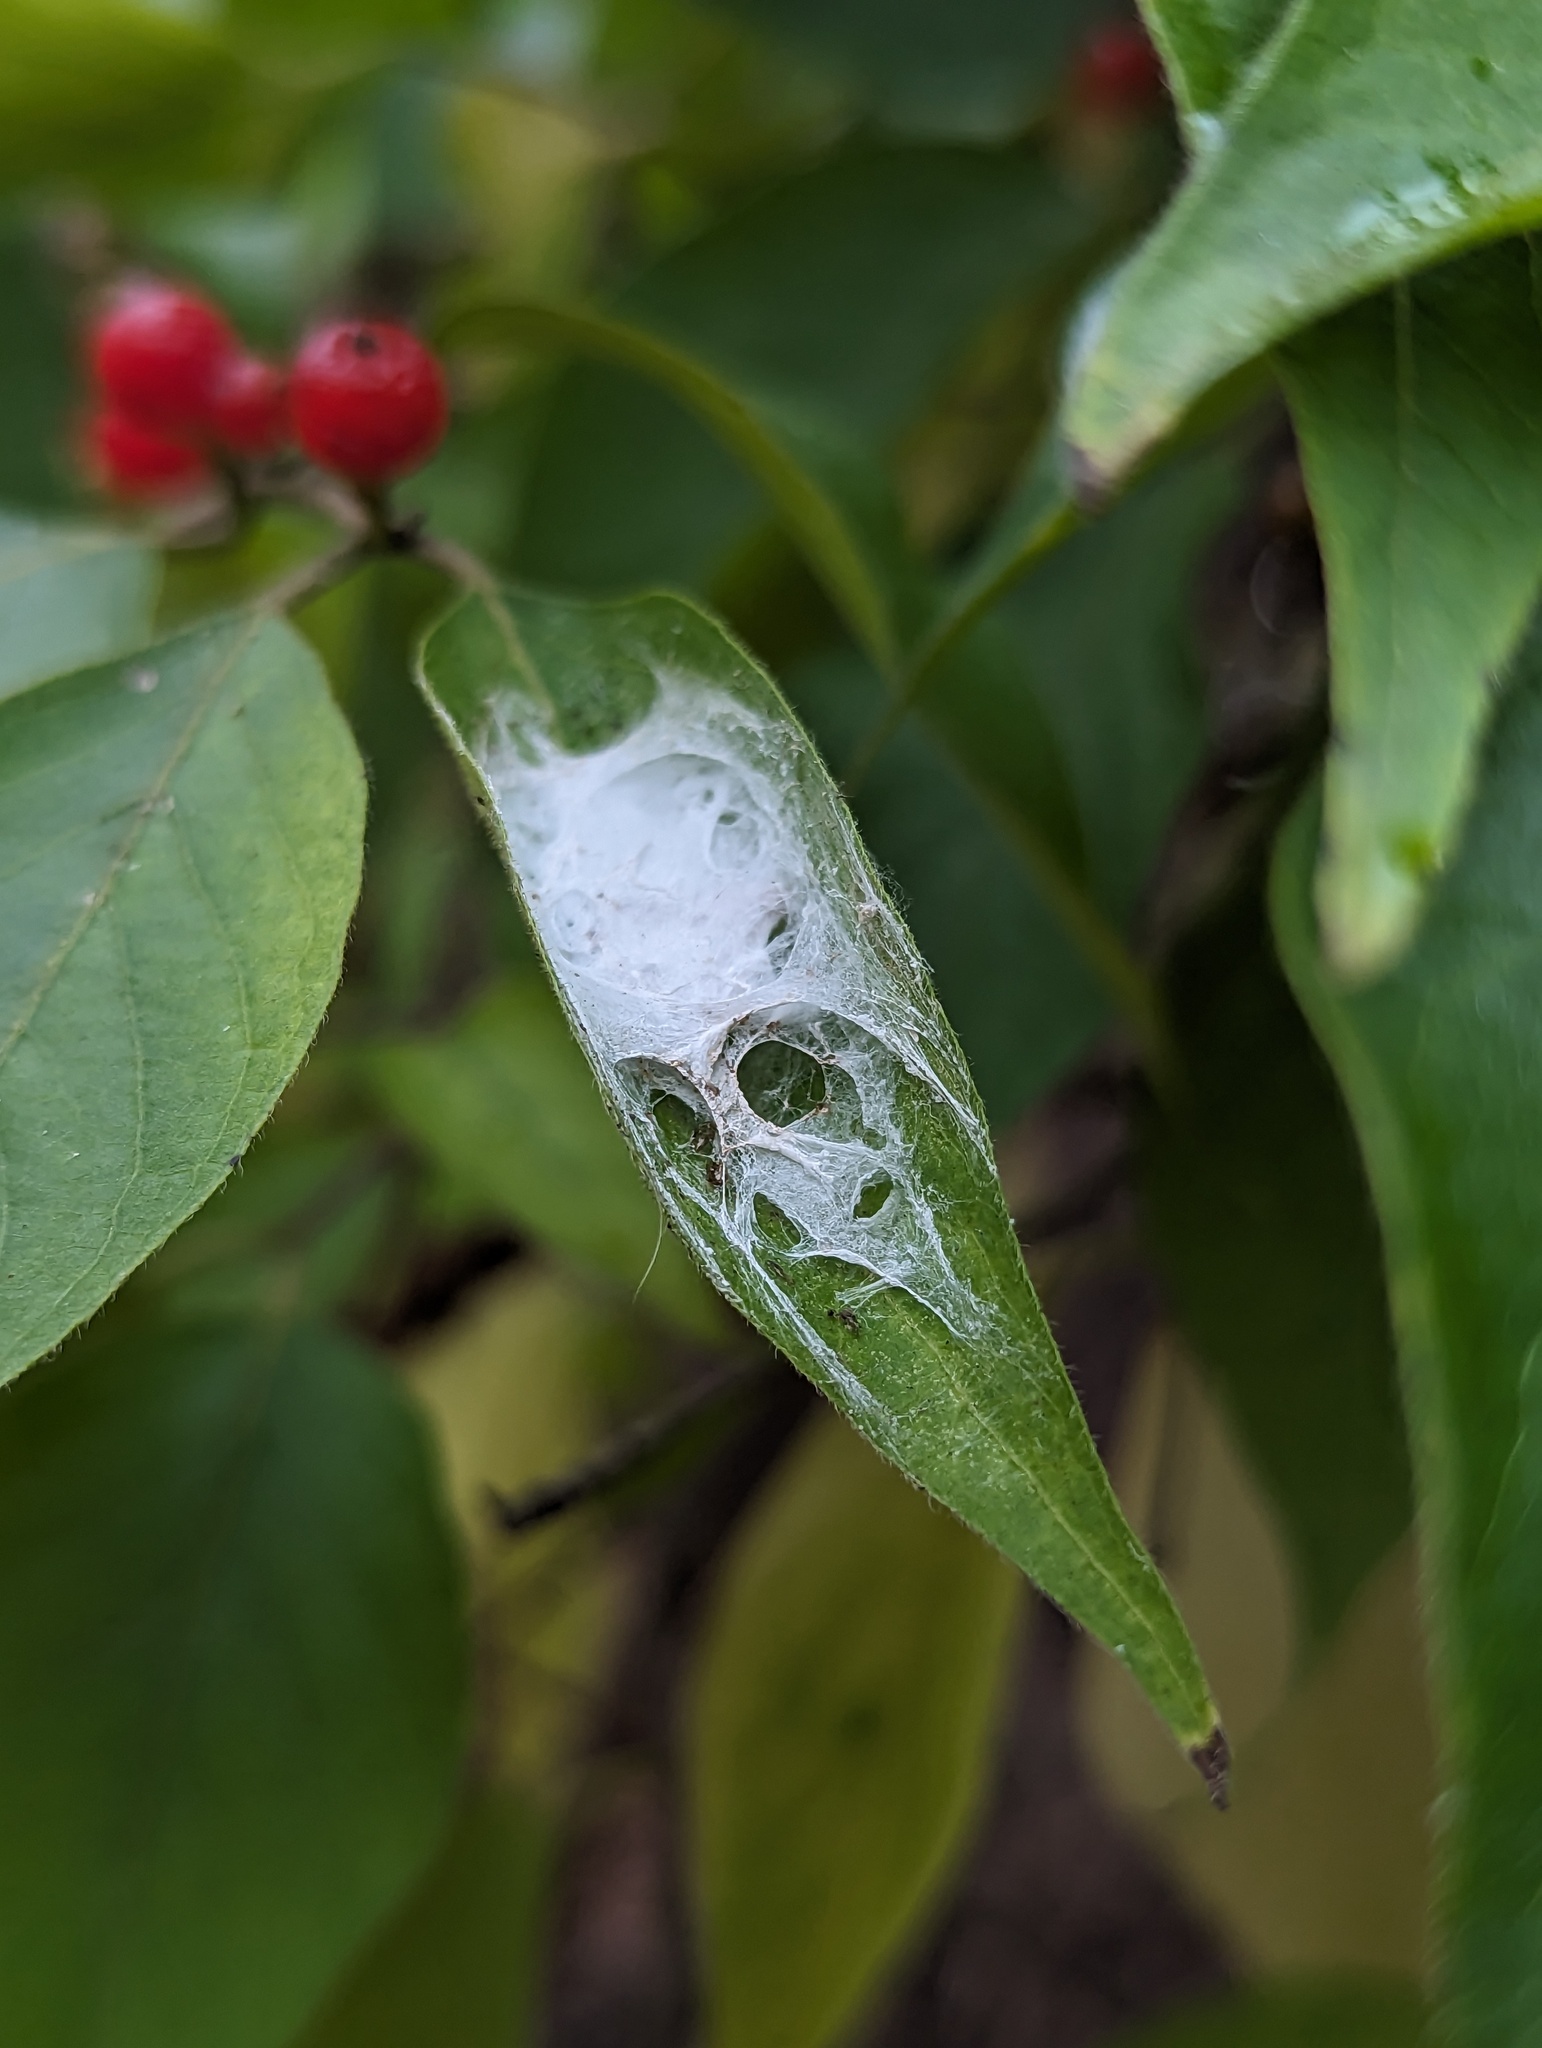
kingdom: Plantae
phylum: Tracheophyta
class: Magnoliopsida
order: Dipsacales
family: Caprifoliaceae
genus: Lonicera
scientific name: Lonicera maackii
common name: Amur honeysuckle
